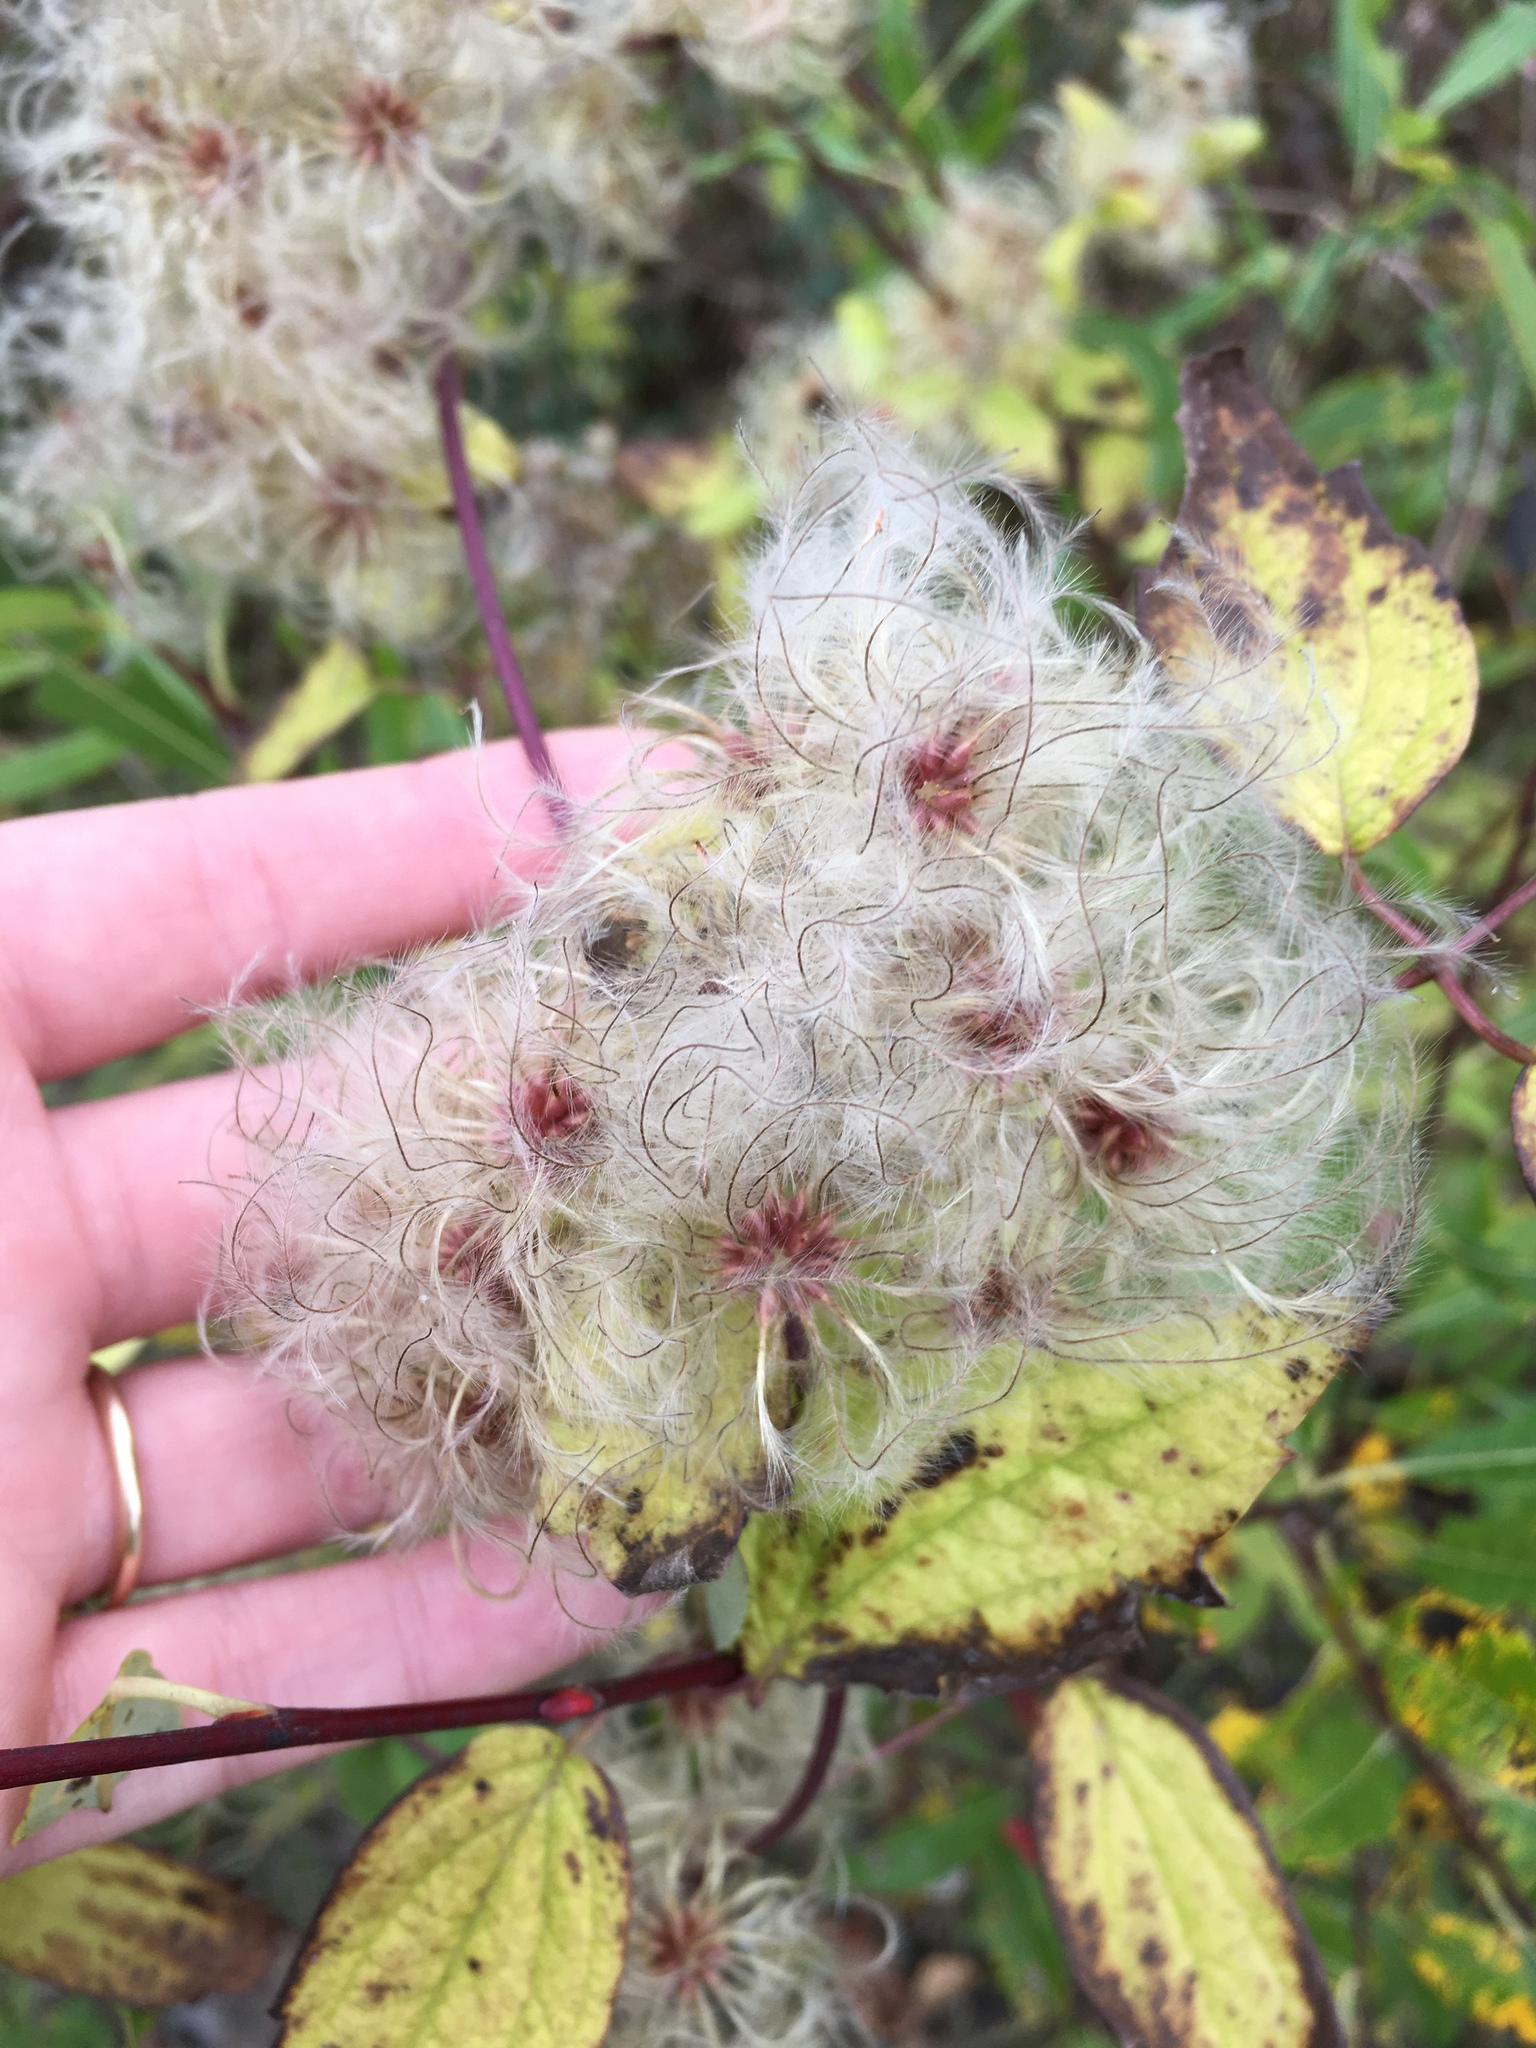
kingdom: Plantae
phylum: Tracheophyta
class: Magnoliopsida
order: Ranunculales
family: Ranunculaceae
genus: Clematis
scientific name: Clematis virginiana
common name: Virgin's-bower
